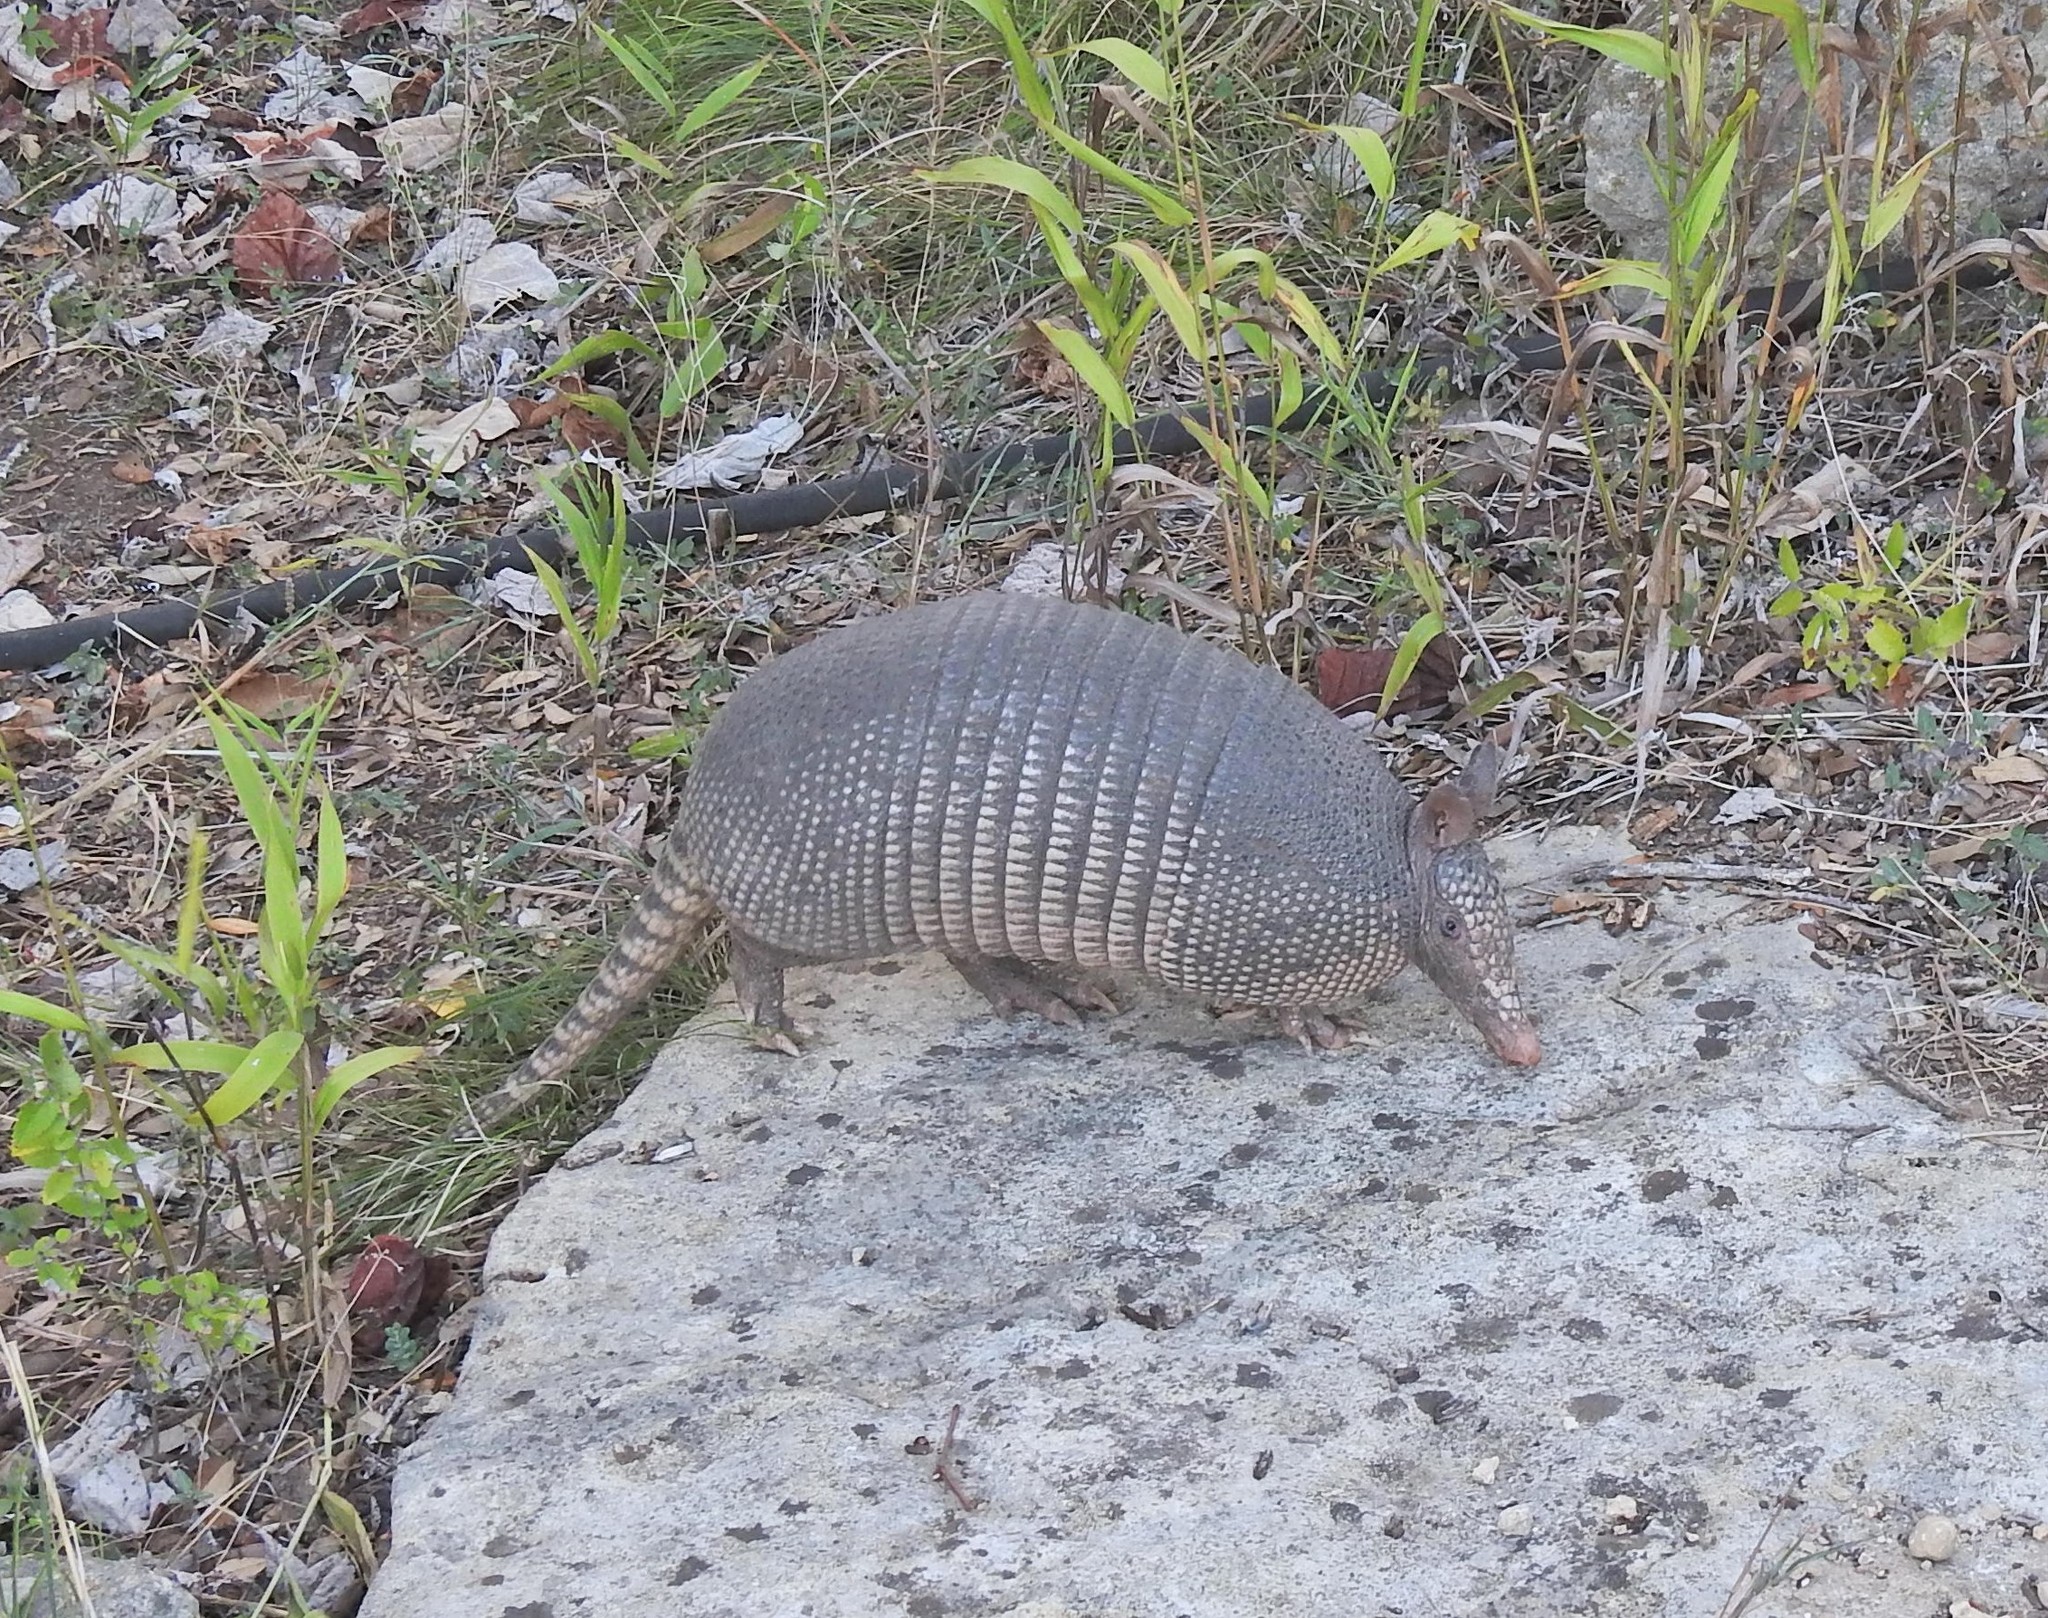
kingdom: Animalia
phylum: Chordata
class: Mammalia
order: Cingulata
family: Dasypodidae
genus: Dasypus
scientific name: Dasypus novemcinctus
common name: Nine-banded armadillo
